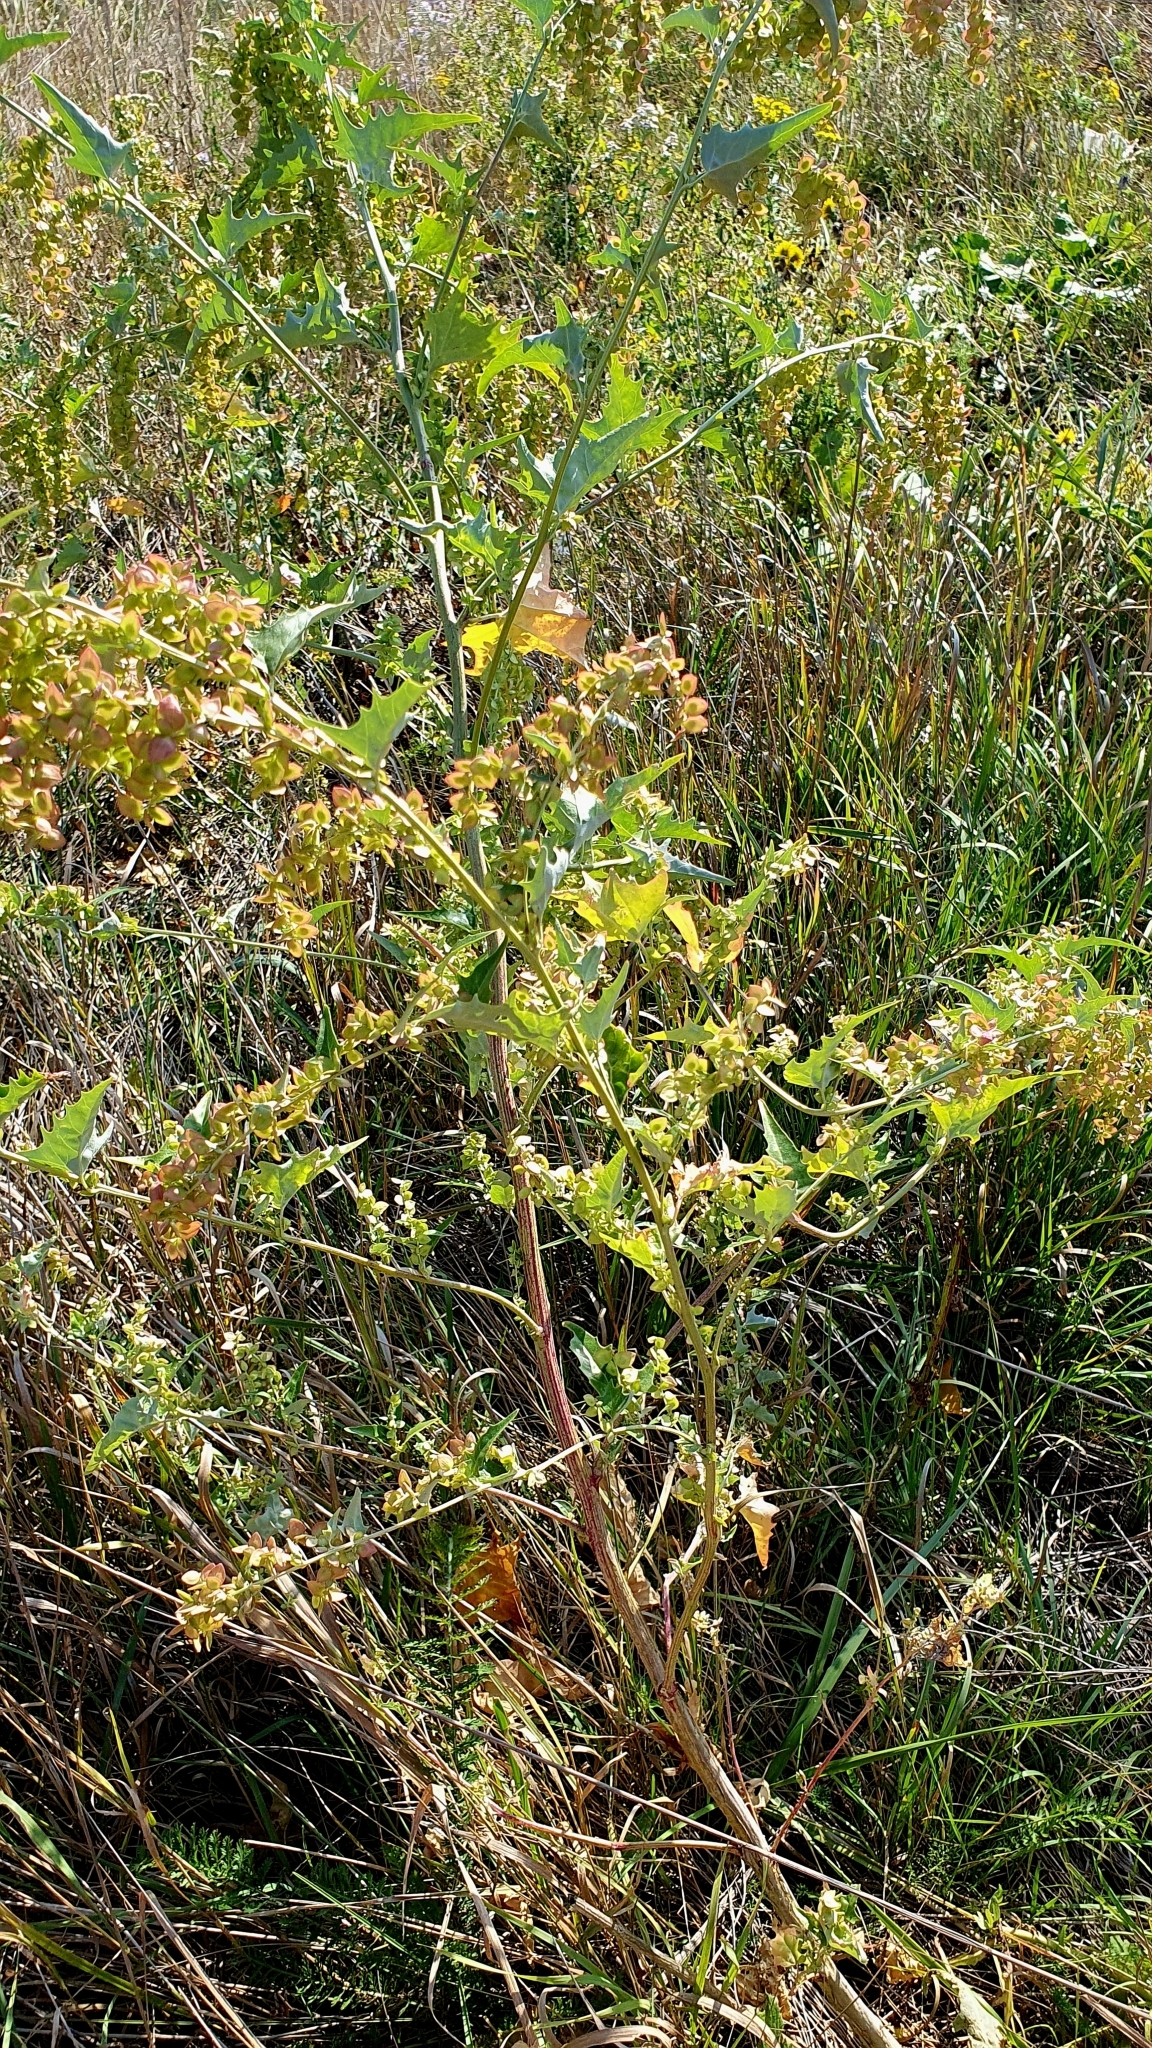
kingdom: Plantae
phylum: Tracheophyta
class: Magnoliopsida
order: Caryophyllales
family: Amaranthaceae
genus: Atriplex
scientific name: Atriplex sagittata
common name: Purple orache
